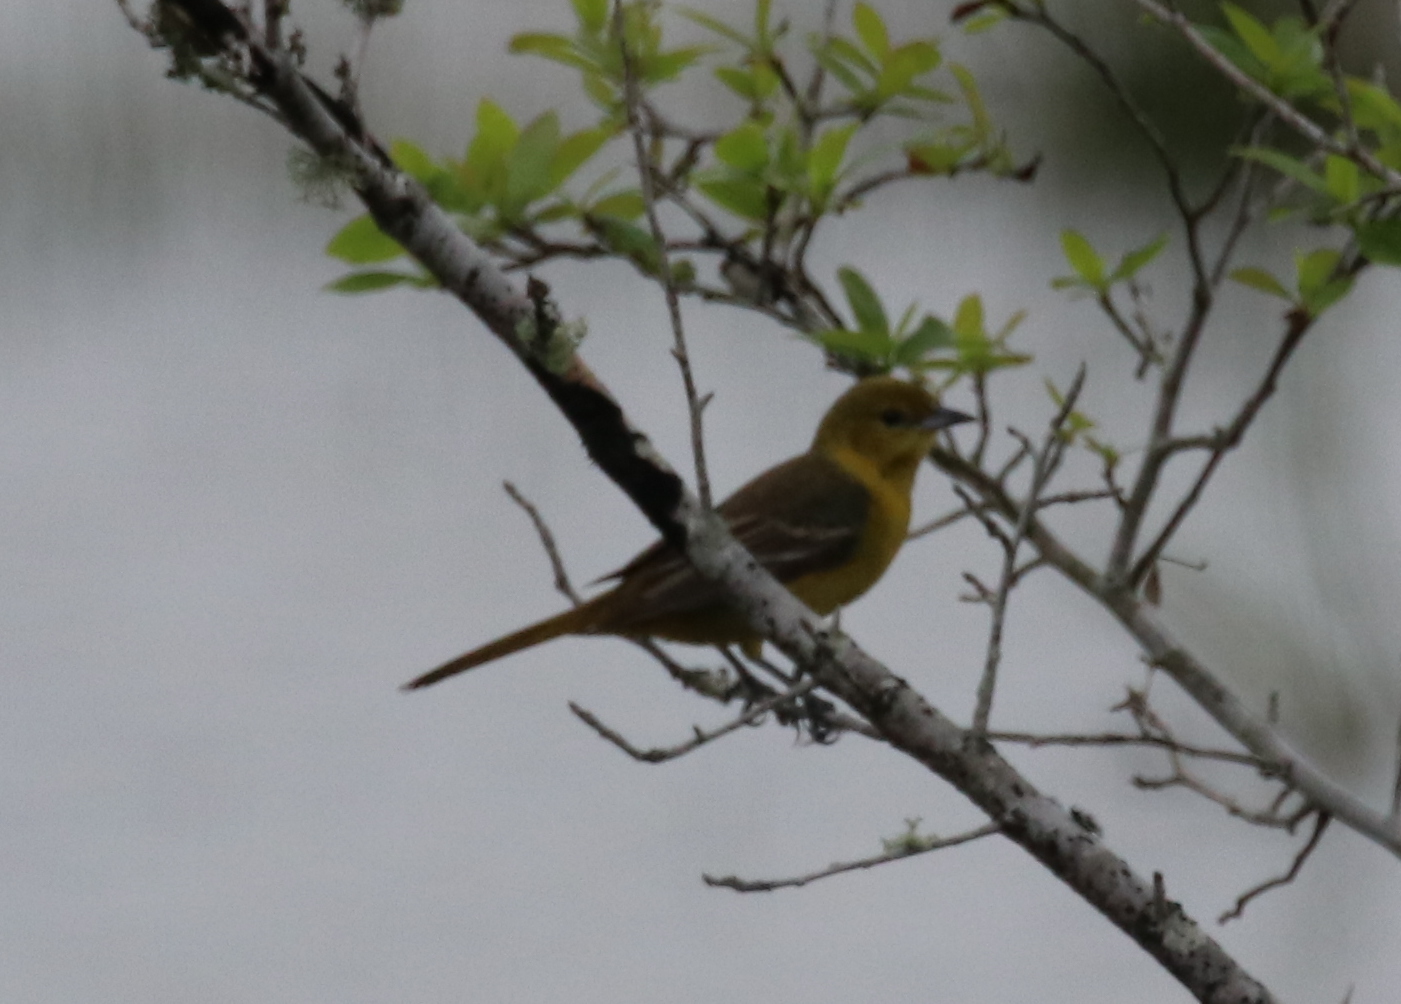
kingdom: Animalia
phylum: Chordata
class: Aves
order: Passeriformes
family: Icteridae
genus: Icterus
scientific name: Icterus spurius
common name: Orchard oriole
